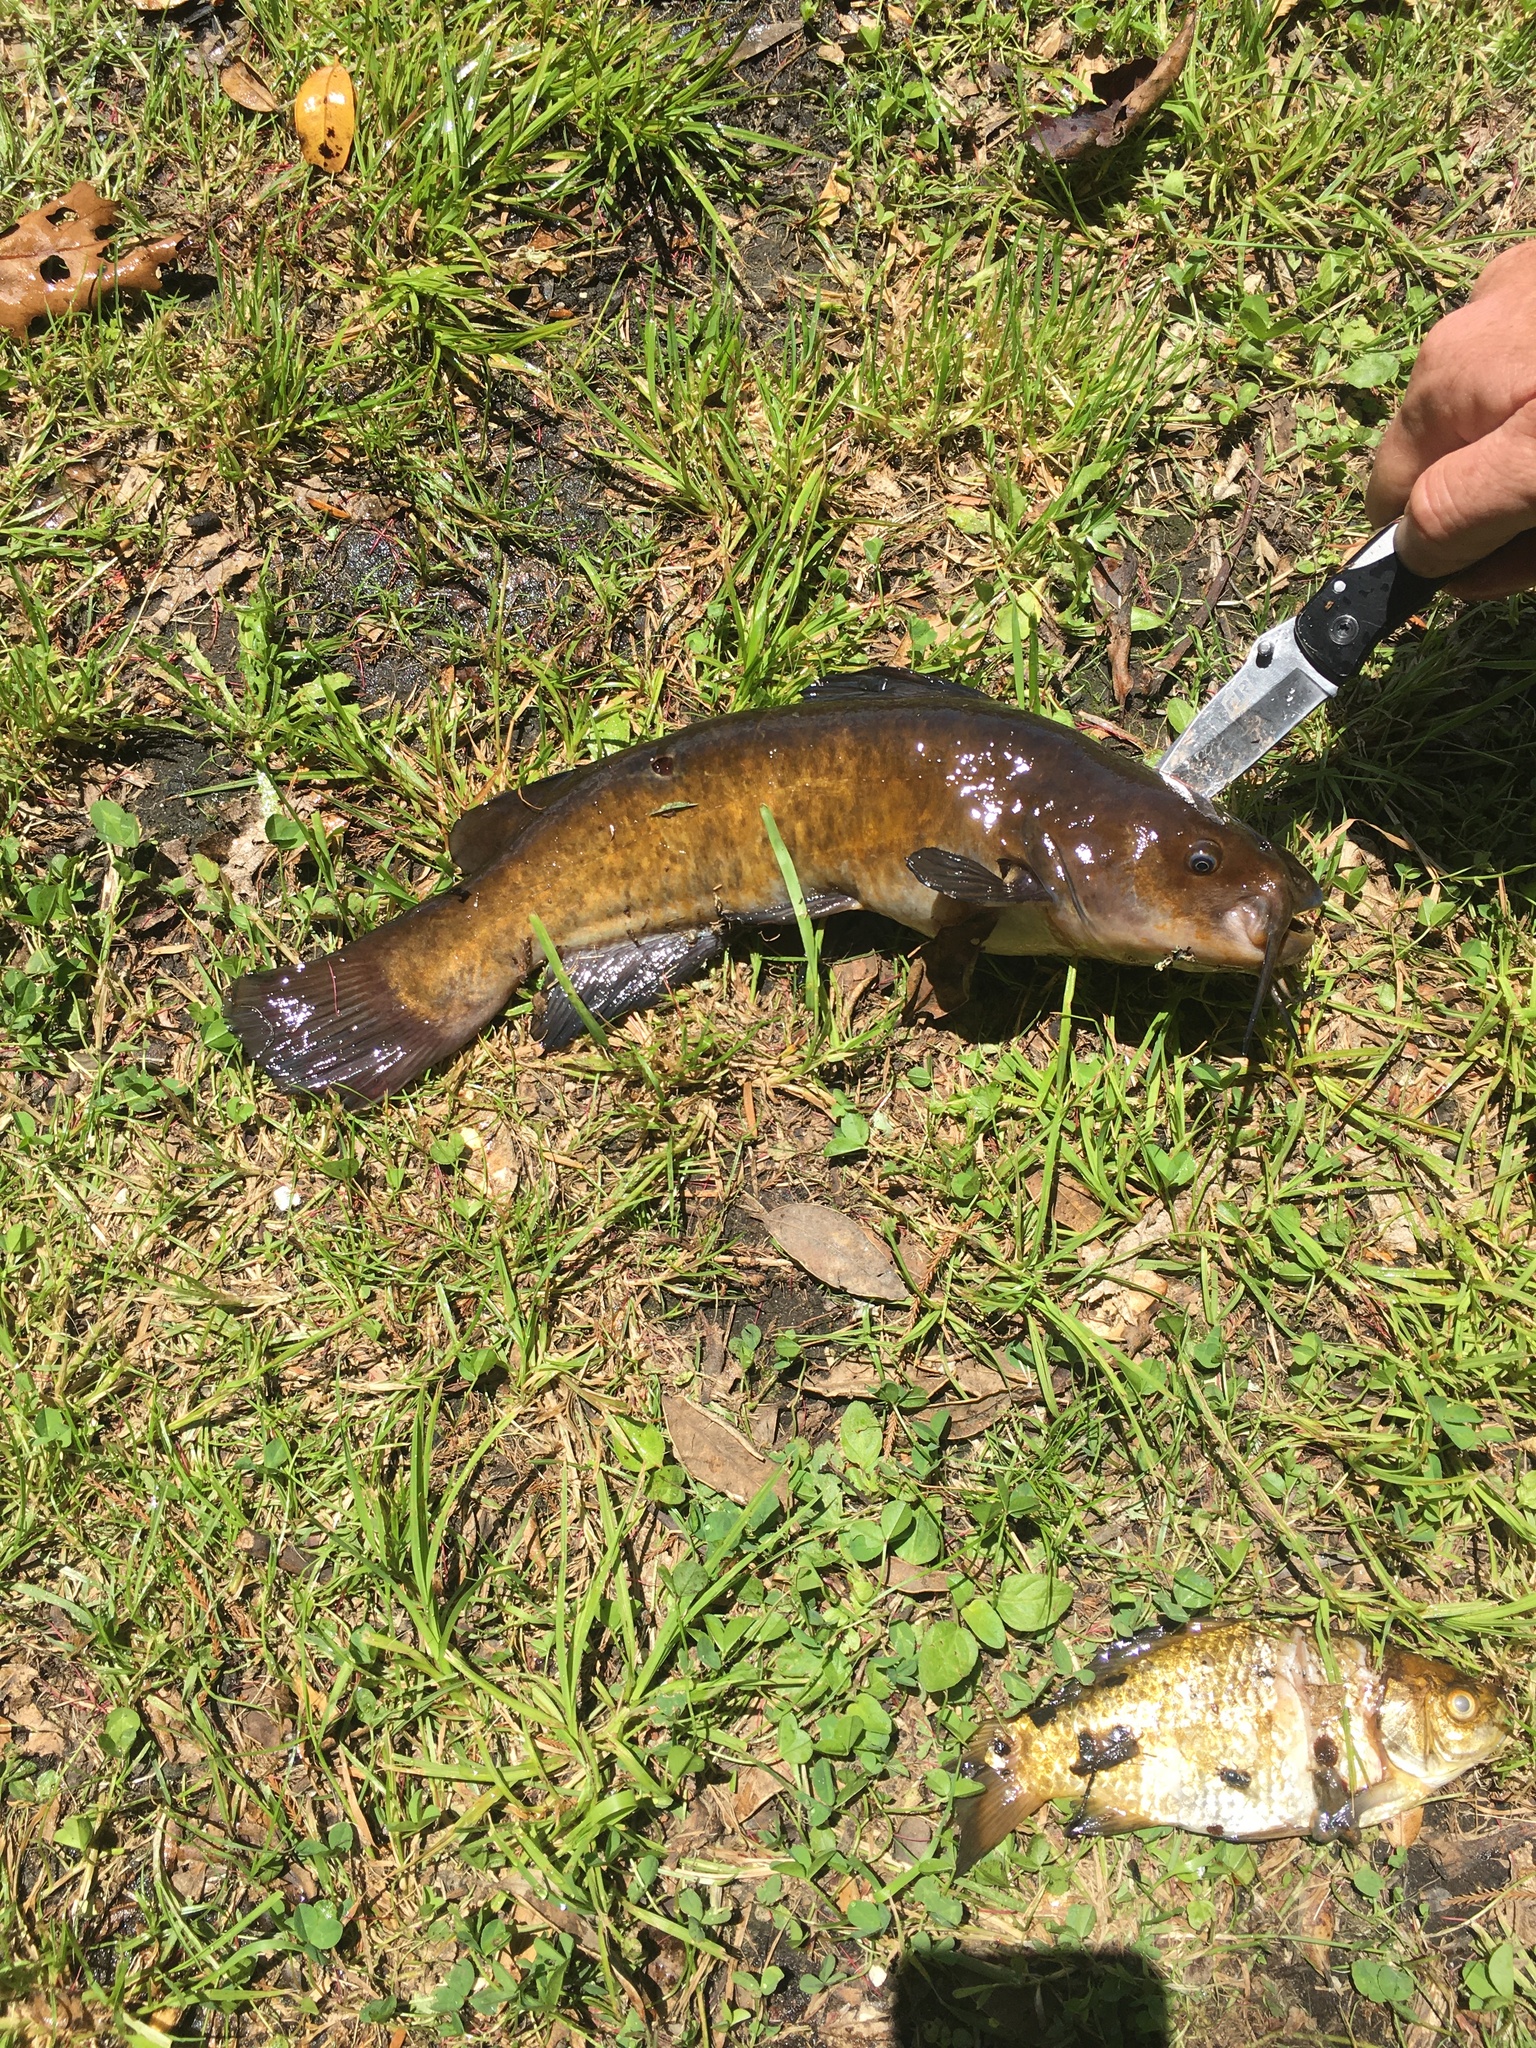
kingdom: Animalia
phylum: Chordata
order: Siluriformes
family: Ictaluridae
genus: Ameiurus
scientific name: Ameiurus nebulosus
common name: Brown bullhead
